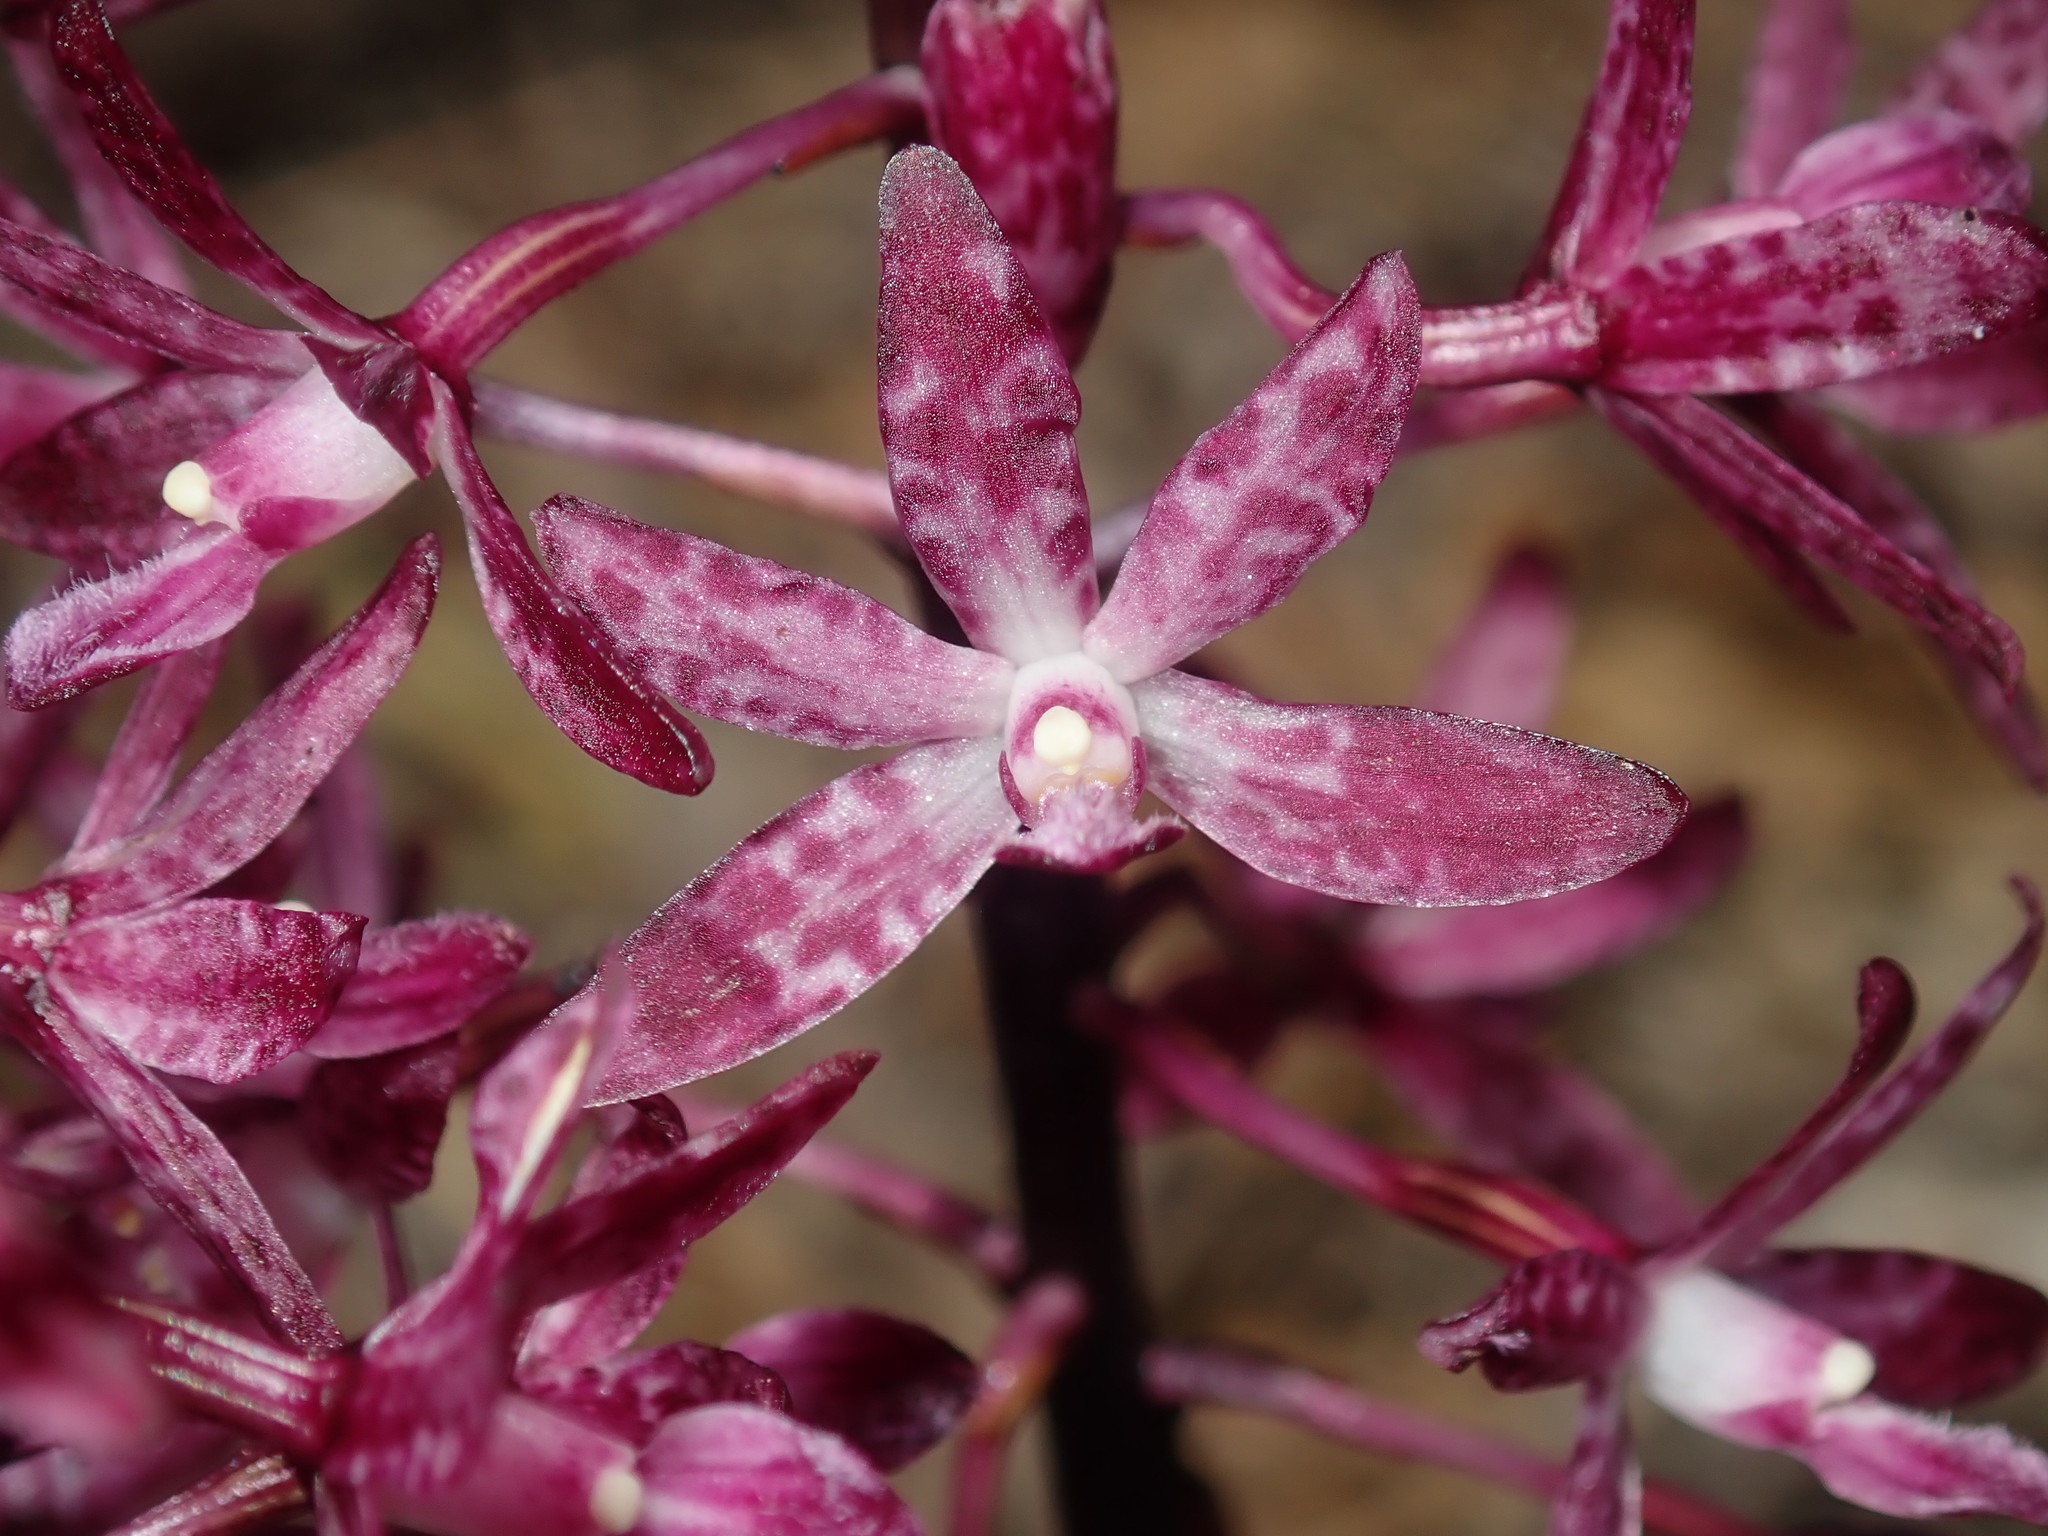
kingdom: Plantae
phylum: Tracheophyta
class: Liliopsida
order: Asparagales
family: Orchidaceae
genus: Dipodium
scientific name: Dipodium squamatum
